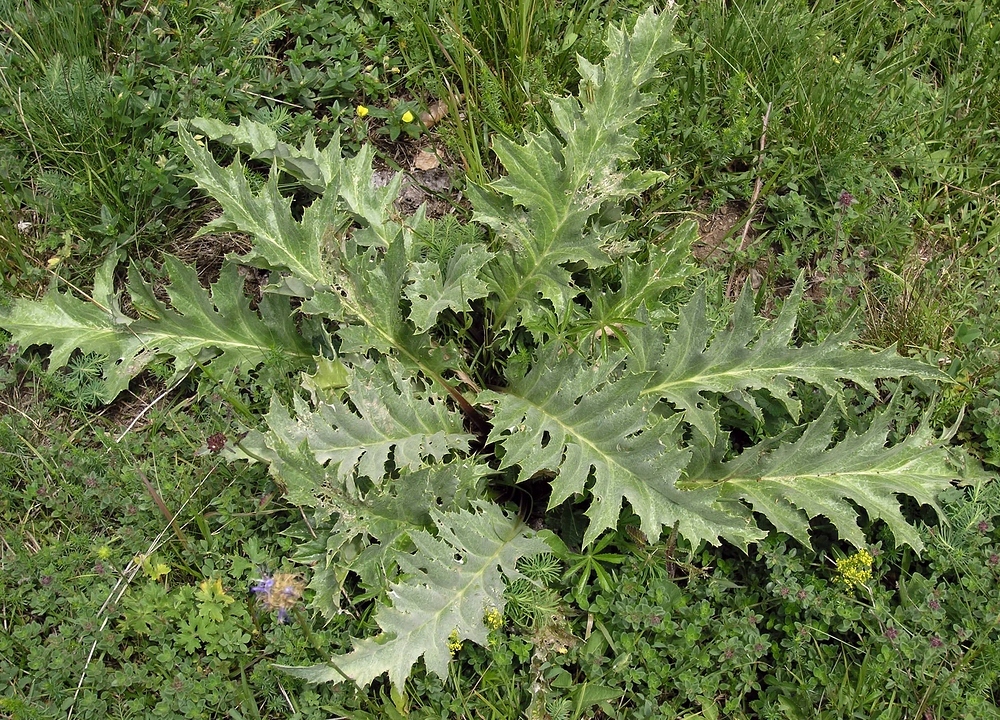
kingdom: Plantae
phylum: Tracheophyta
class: Magnoliopsida
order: Asterales
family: Asteraceae
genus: Carlina
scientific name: Carlina acanthifolia
